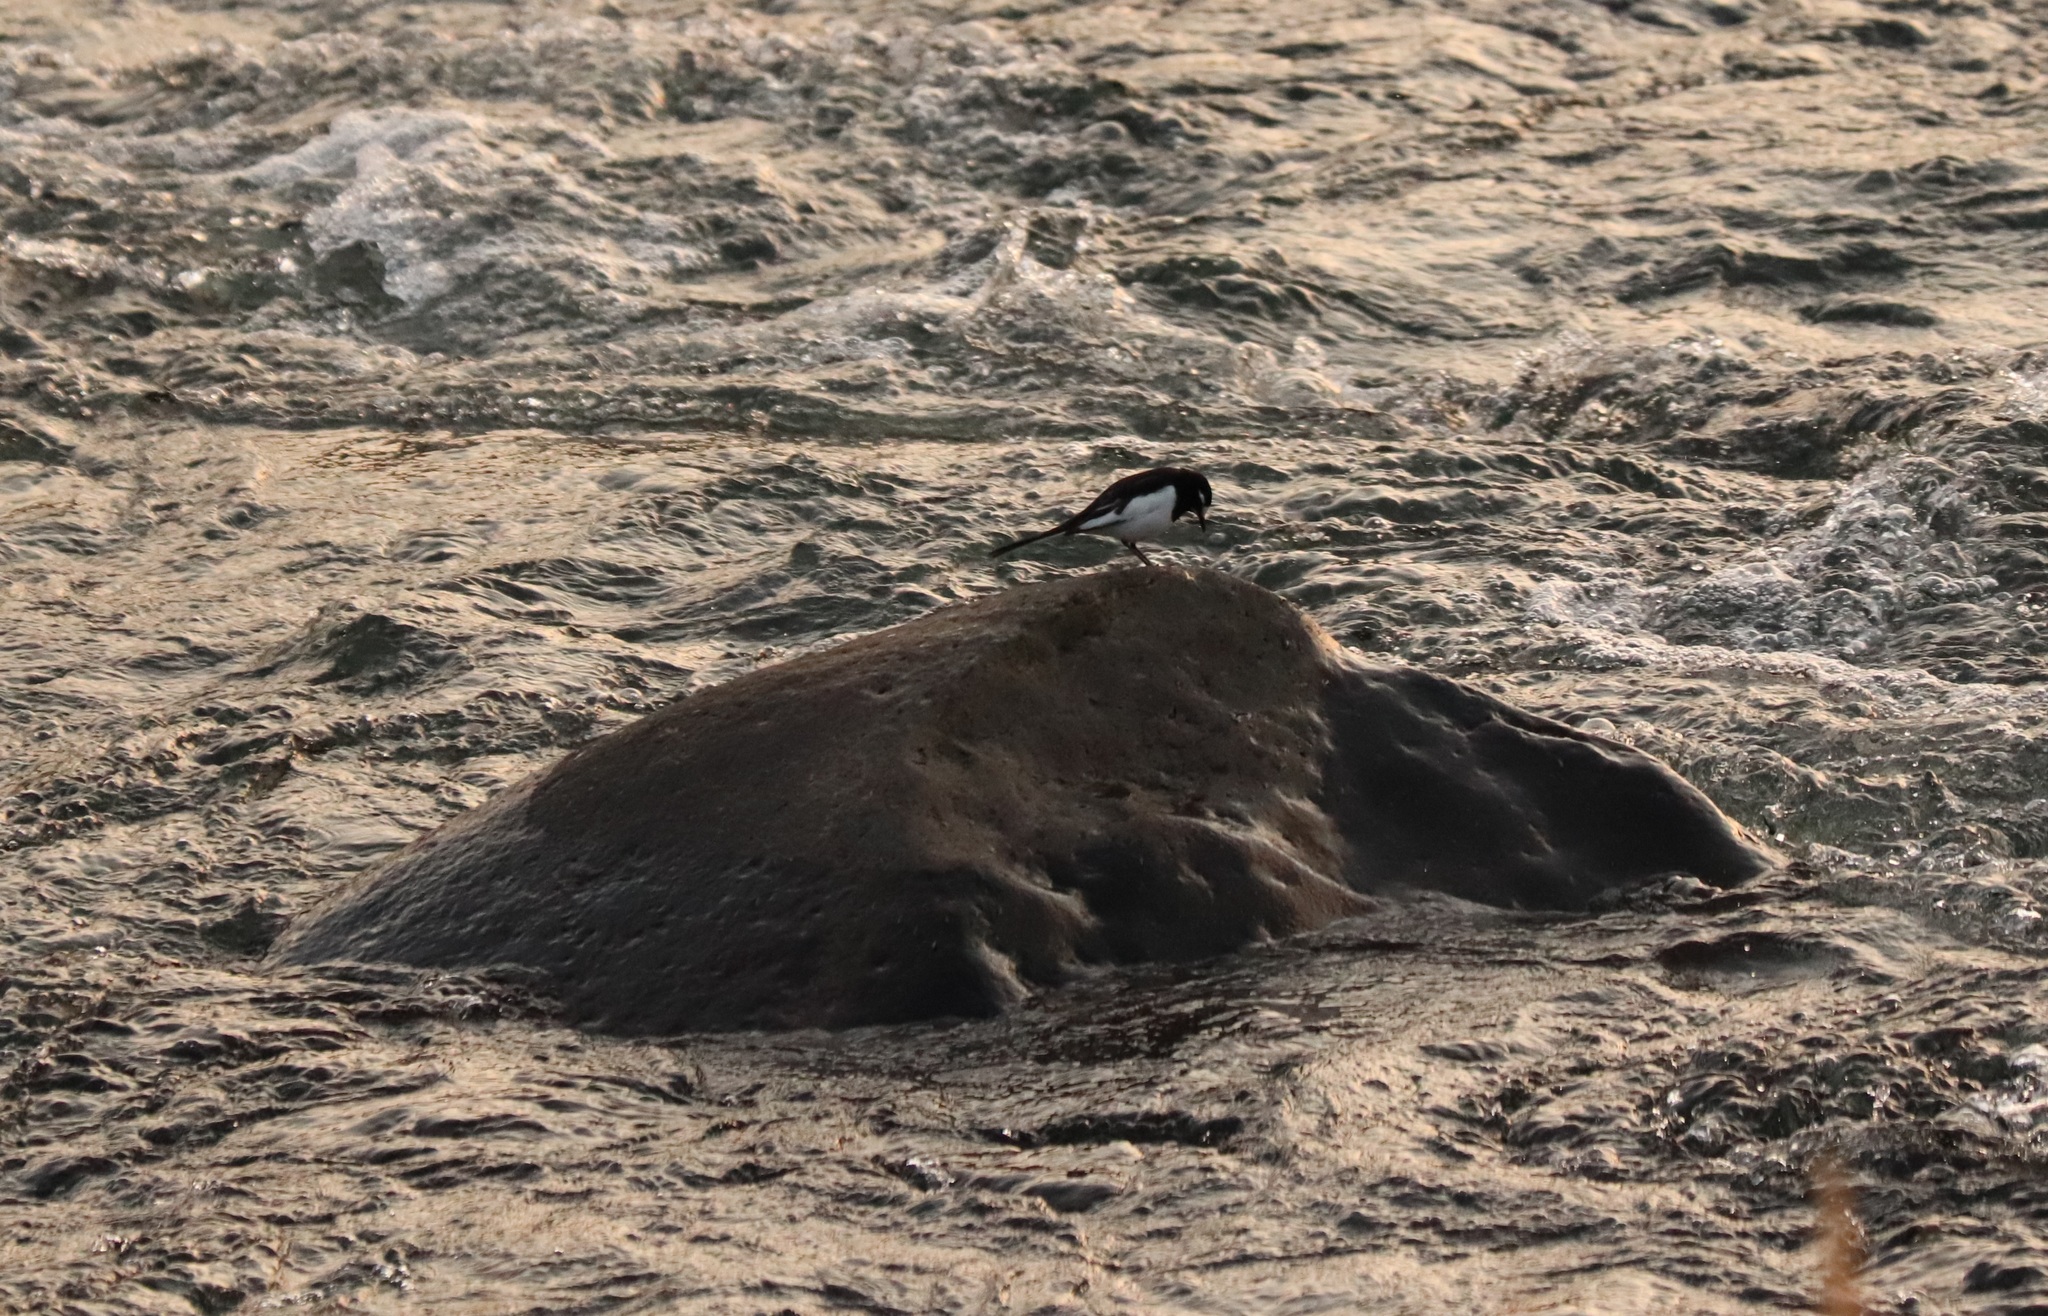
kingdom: Animalia
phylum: Chordata
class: Aves
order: Passeriformes
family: Motacillidae
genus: Motacilla
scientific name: Motacilla grandis
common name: Japanese wagtail
